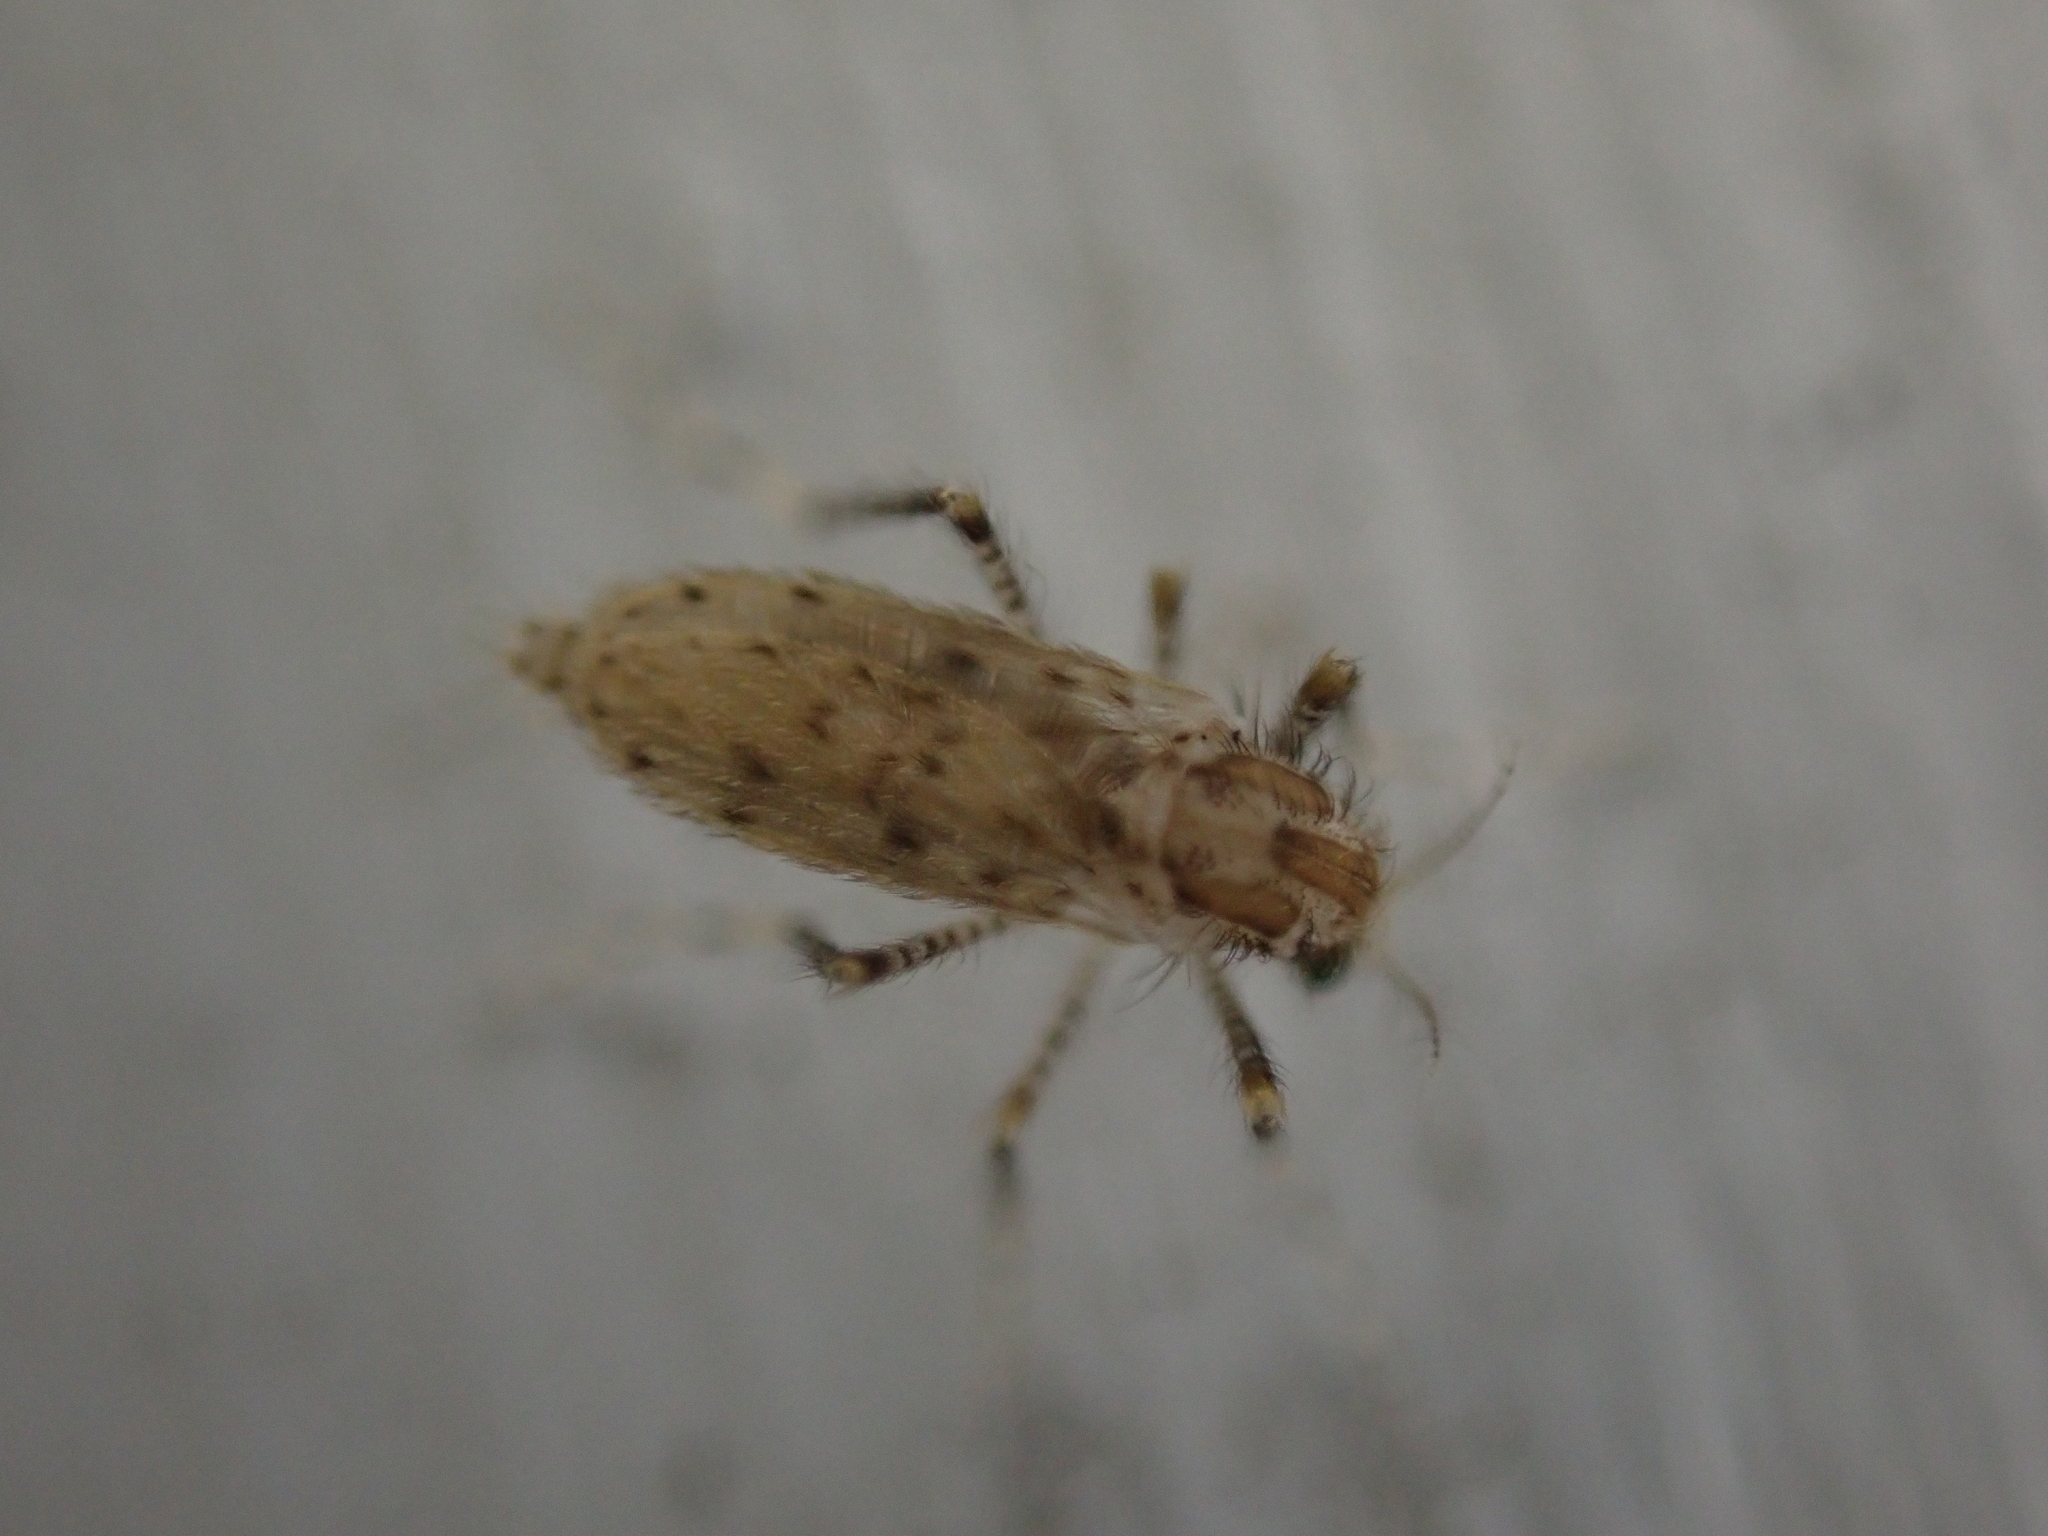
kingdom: Animalia
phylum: Arthropoda
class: Insecta
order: Diptera
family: Chaoboridae
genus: Chaoborus
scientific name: Chaoborus punctipennis
